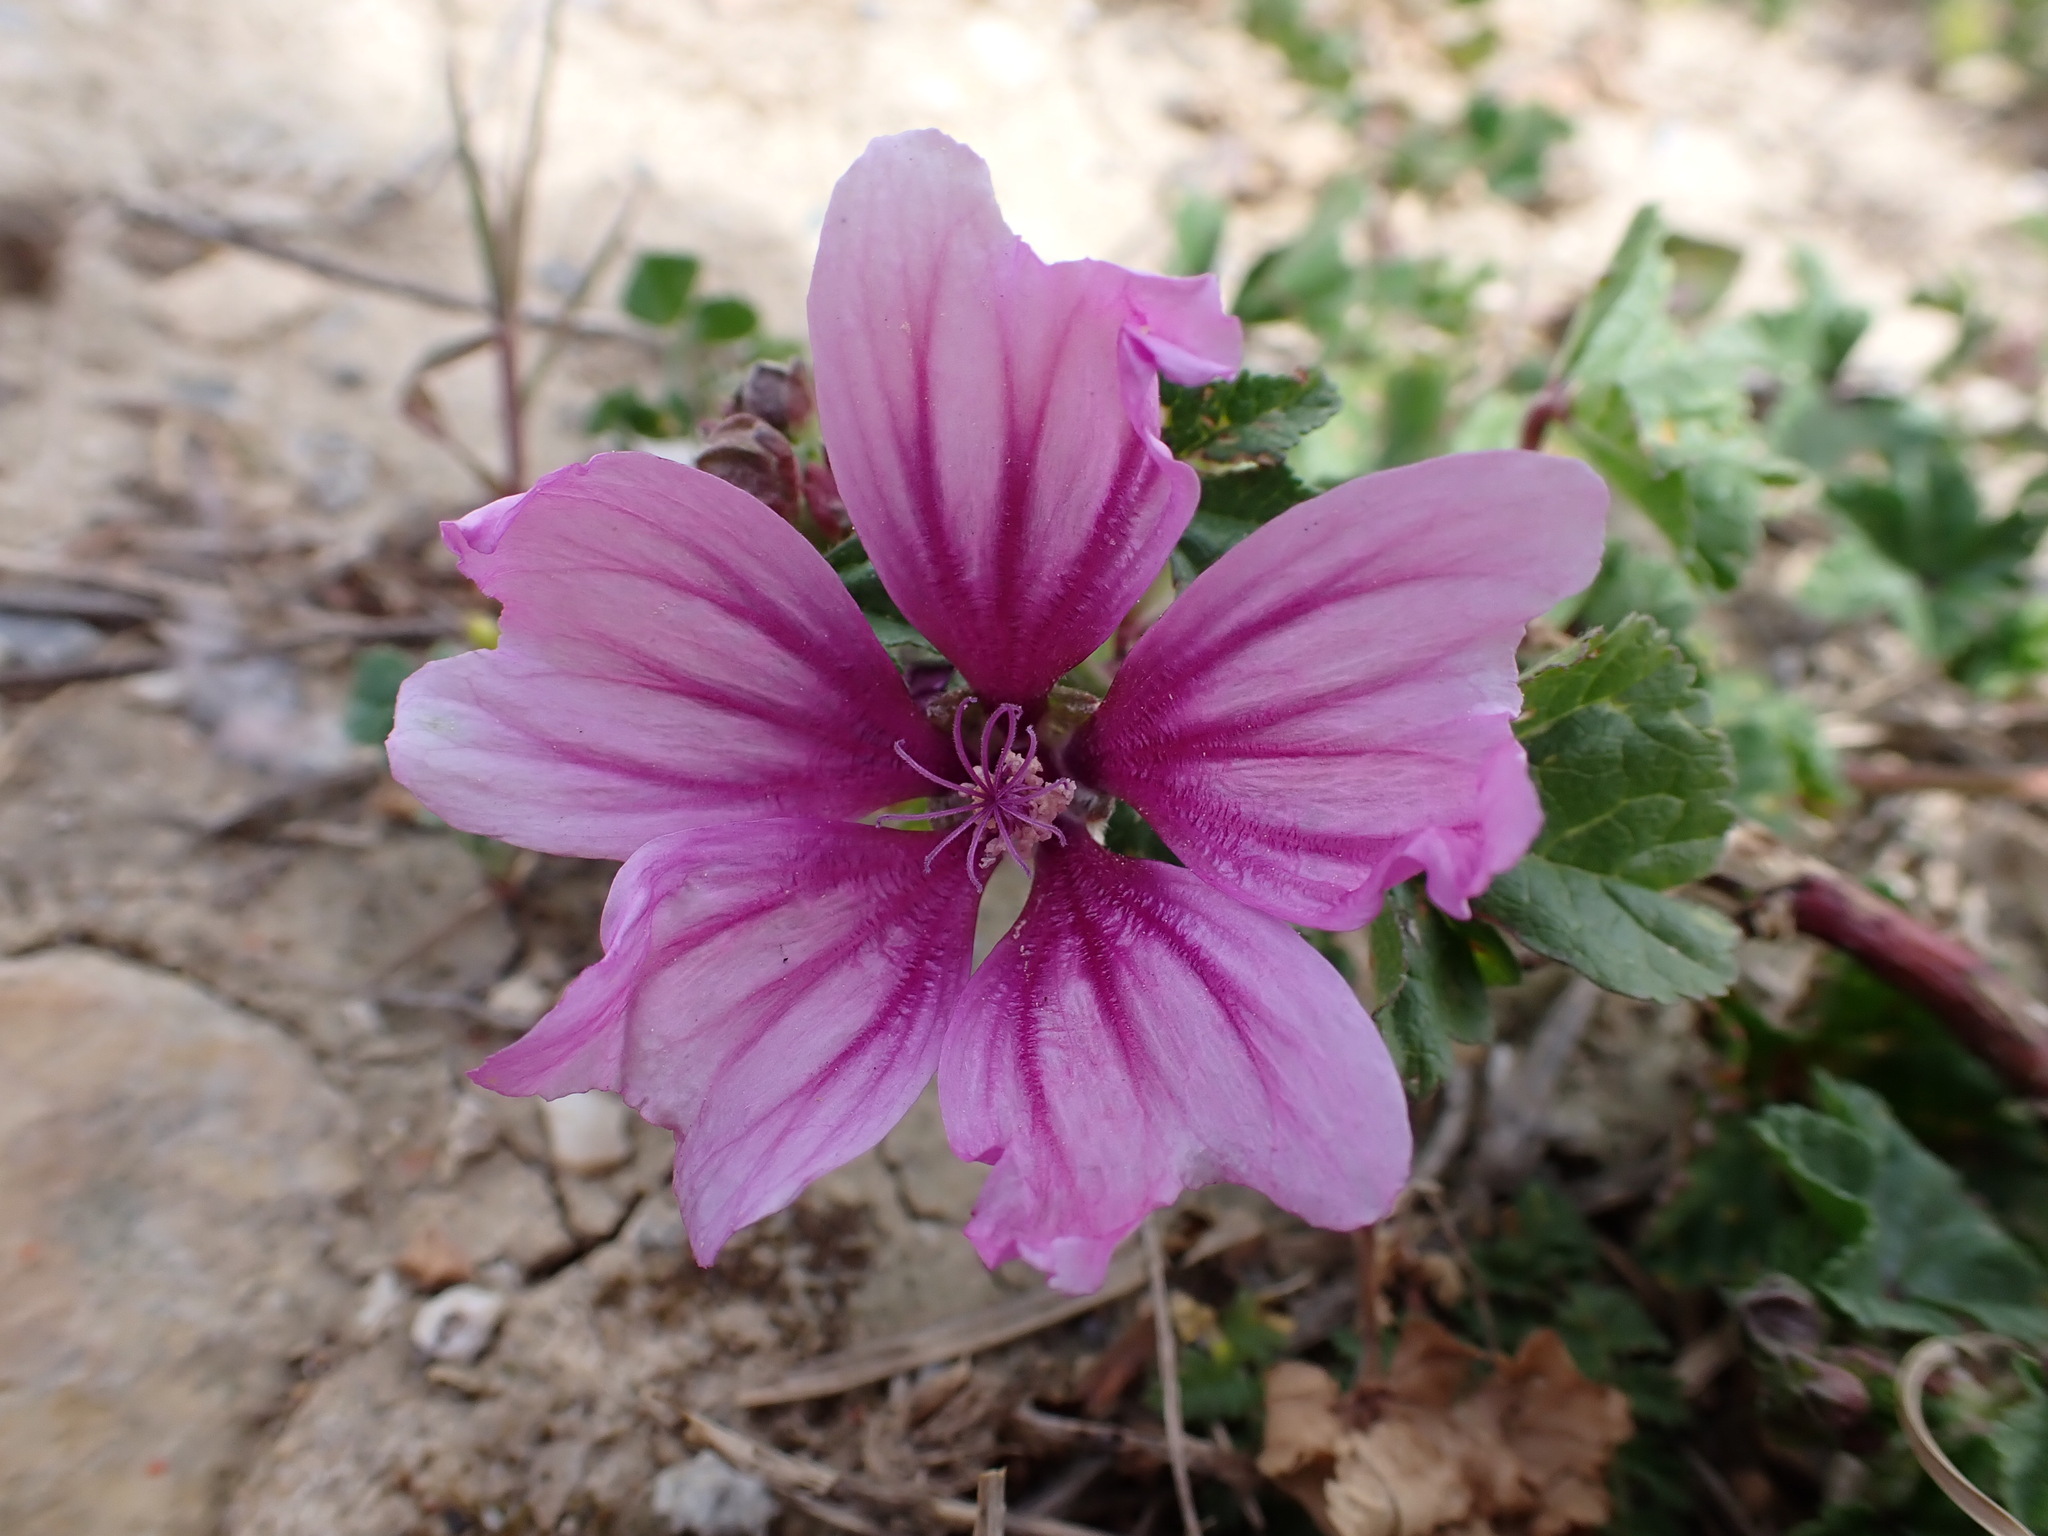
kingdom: Plantae
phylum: Tracheophyta
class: Magnoliopsida
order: Malvales
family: Malvaceae
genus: Malva
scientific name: Malva sylvestris
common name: Common mallow
